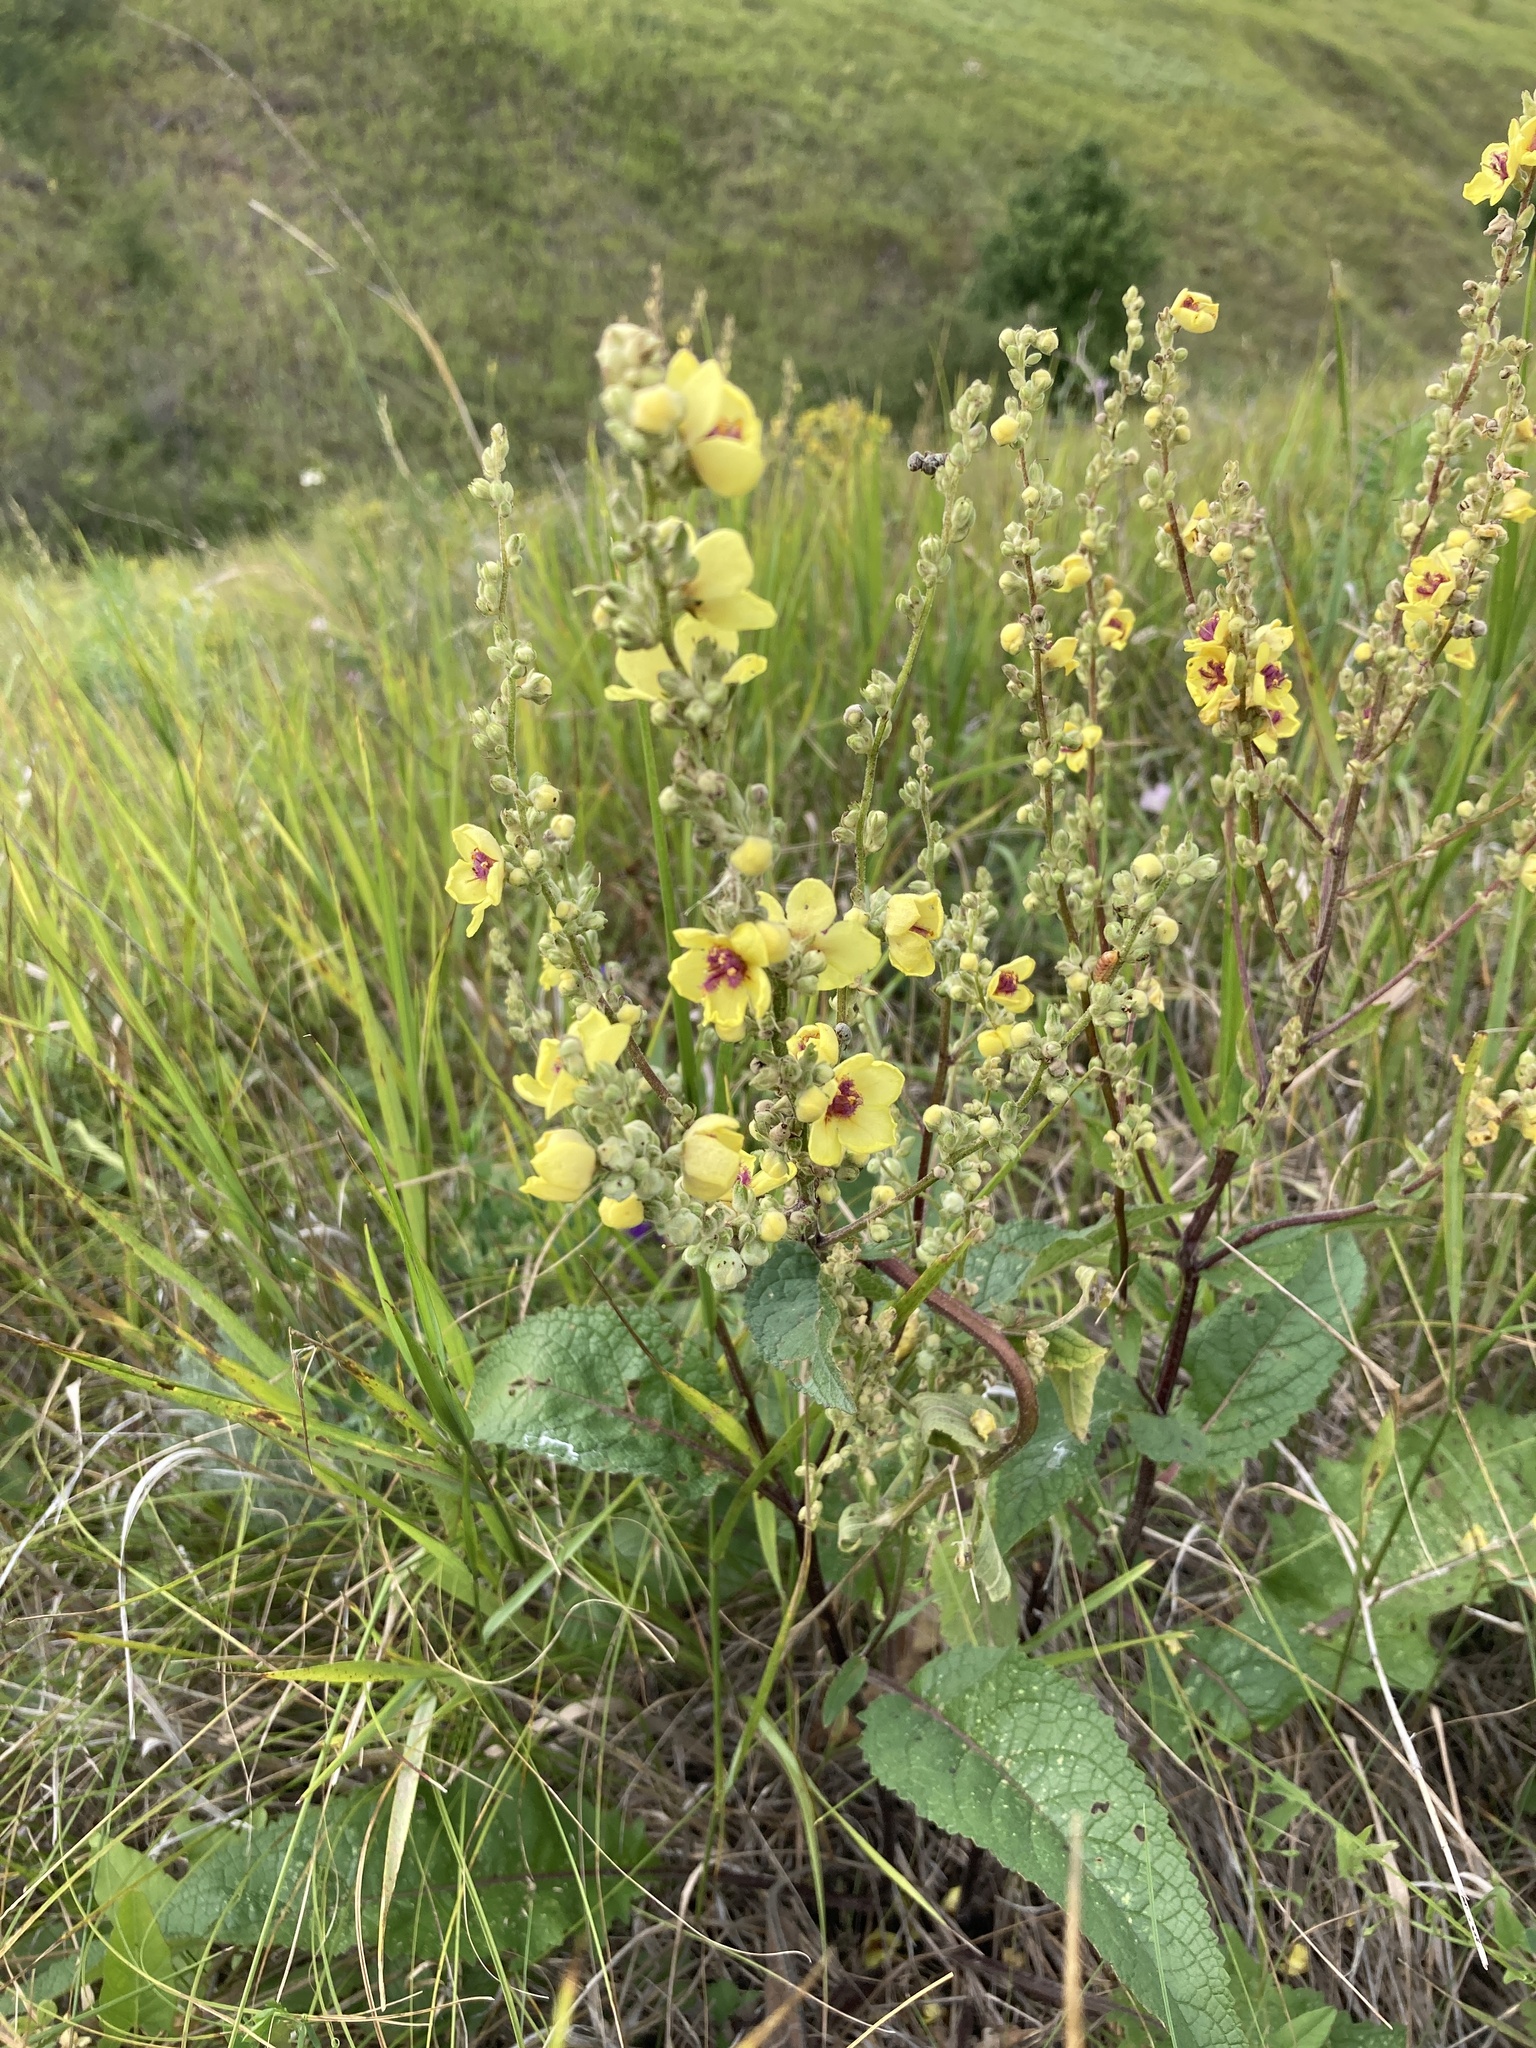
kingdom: Plantae
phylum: Tracheophyta
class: Magnoliopsida
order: Lamiales
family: Scrophulariaceae
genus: Verbascum
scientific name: Verbascum chaixii
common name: Nettle-leaved mullein
